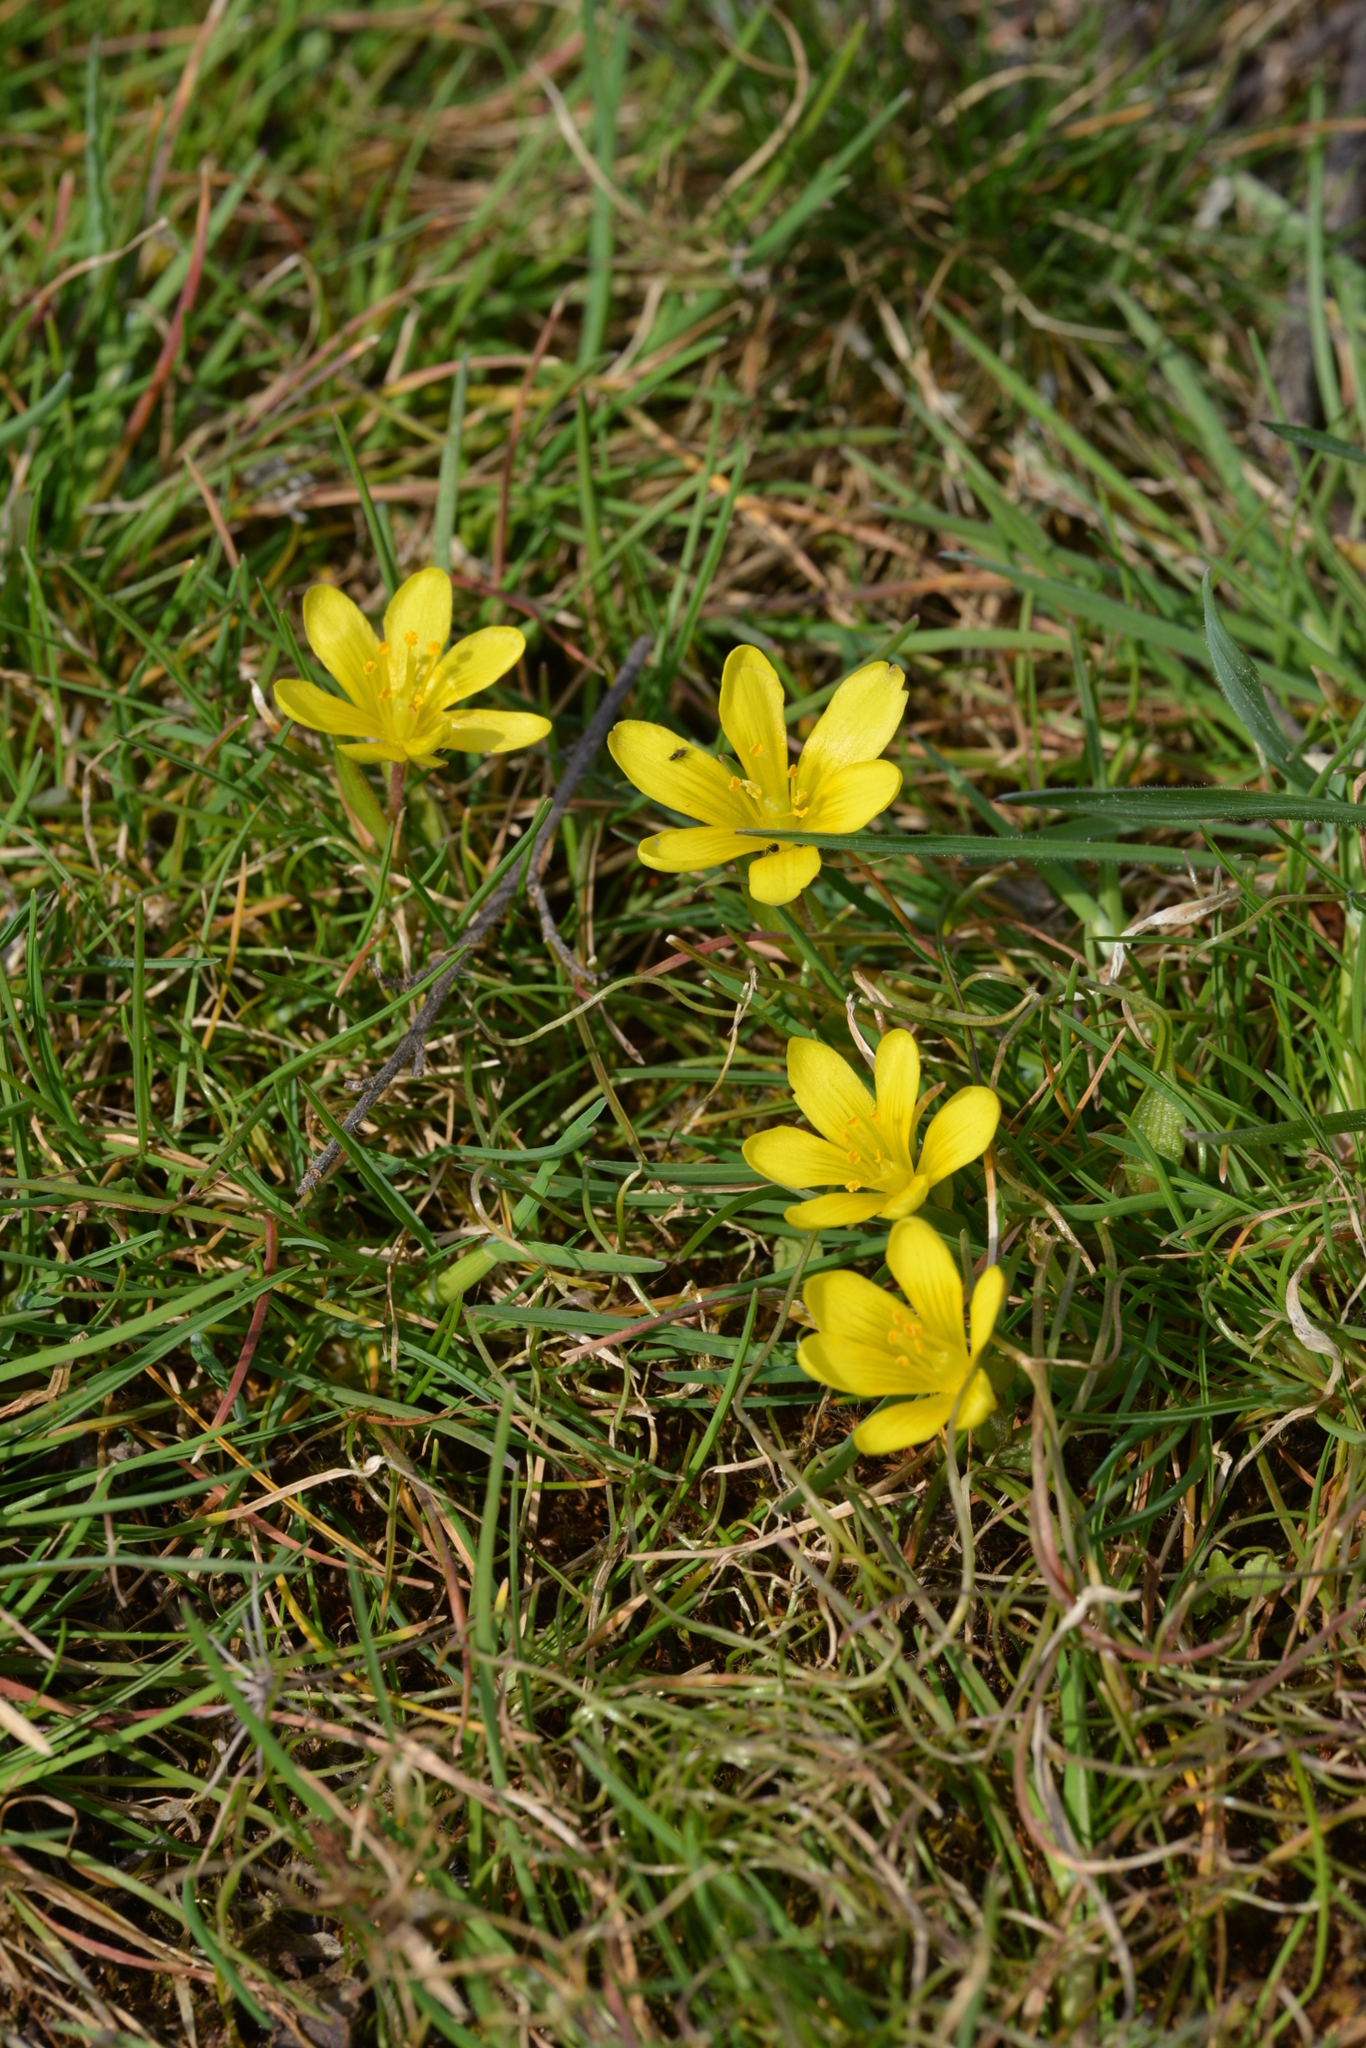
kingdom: Plantae
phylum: Tracheophyta
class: Liliopsida
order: Liliales
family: Liliaceae
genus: Gagea
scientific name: Gagea bohemica
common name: Early star-of-bethlehem
